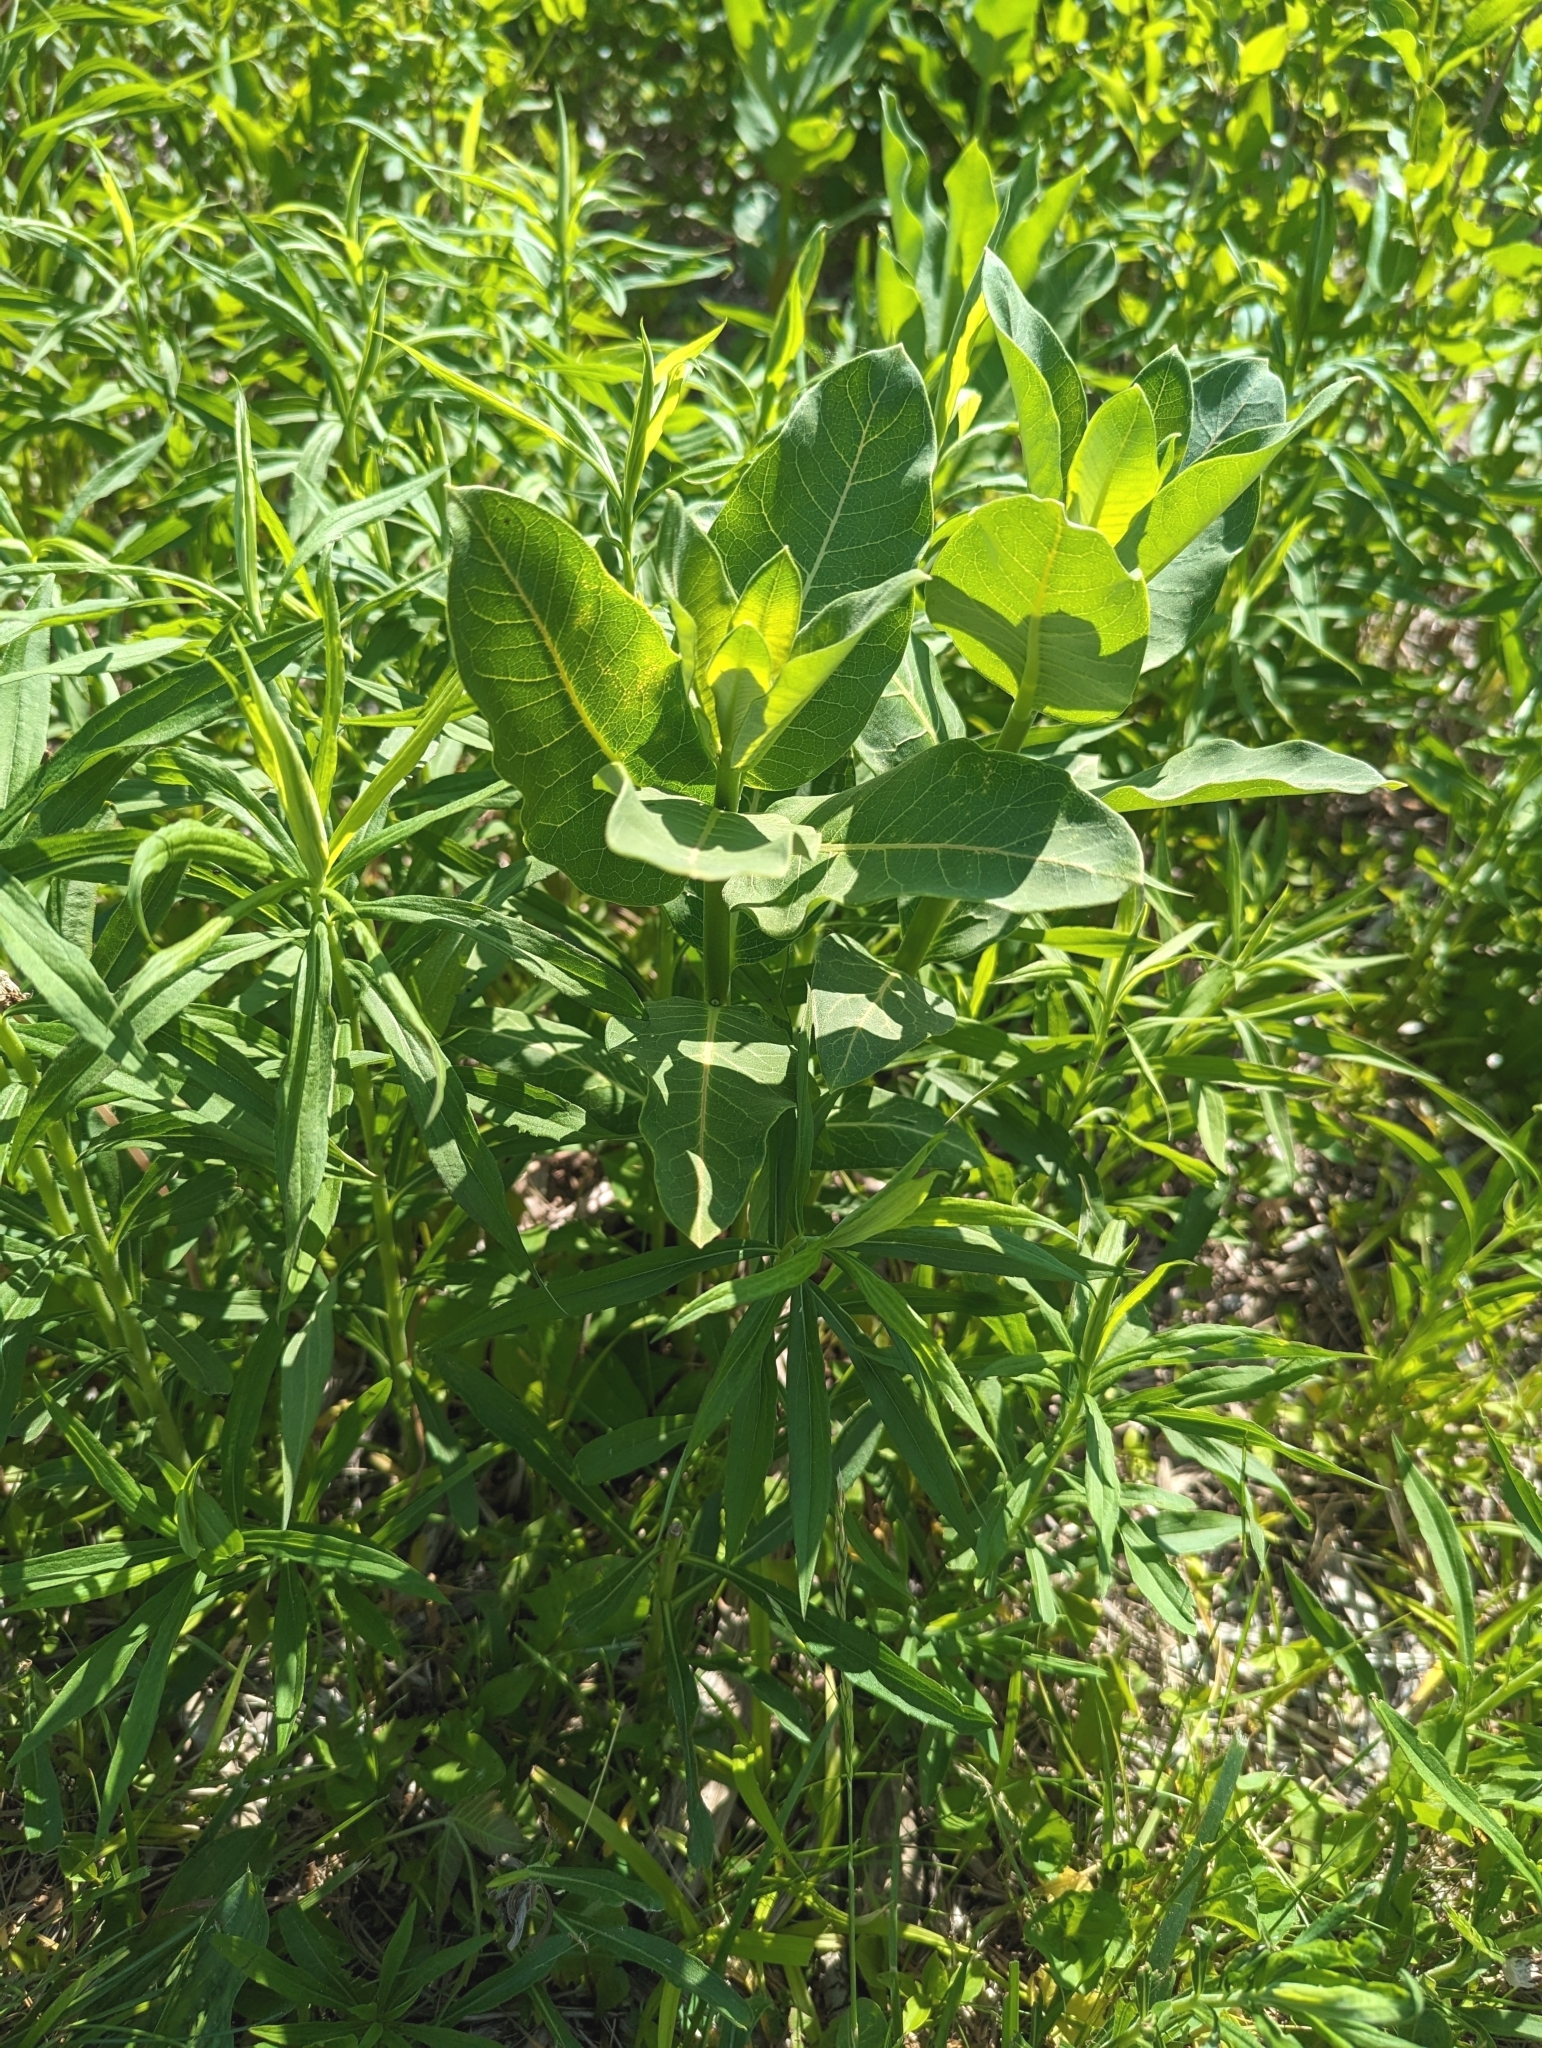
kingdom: Plantae
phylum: Tracheophyta
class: Magnoliopsida
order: Gentianales
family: Apocynaceae
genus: Asclepias
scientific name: Asclepias syriaca
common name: Common milkweed
